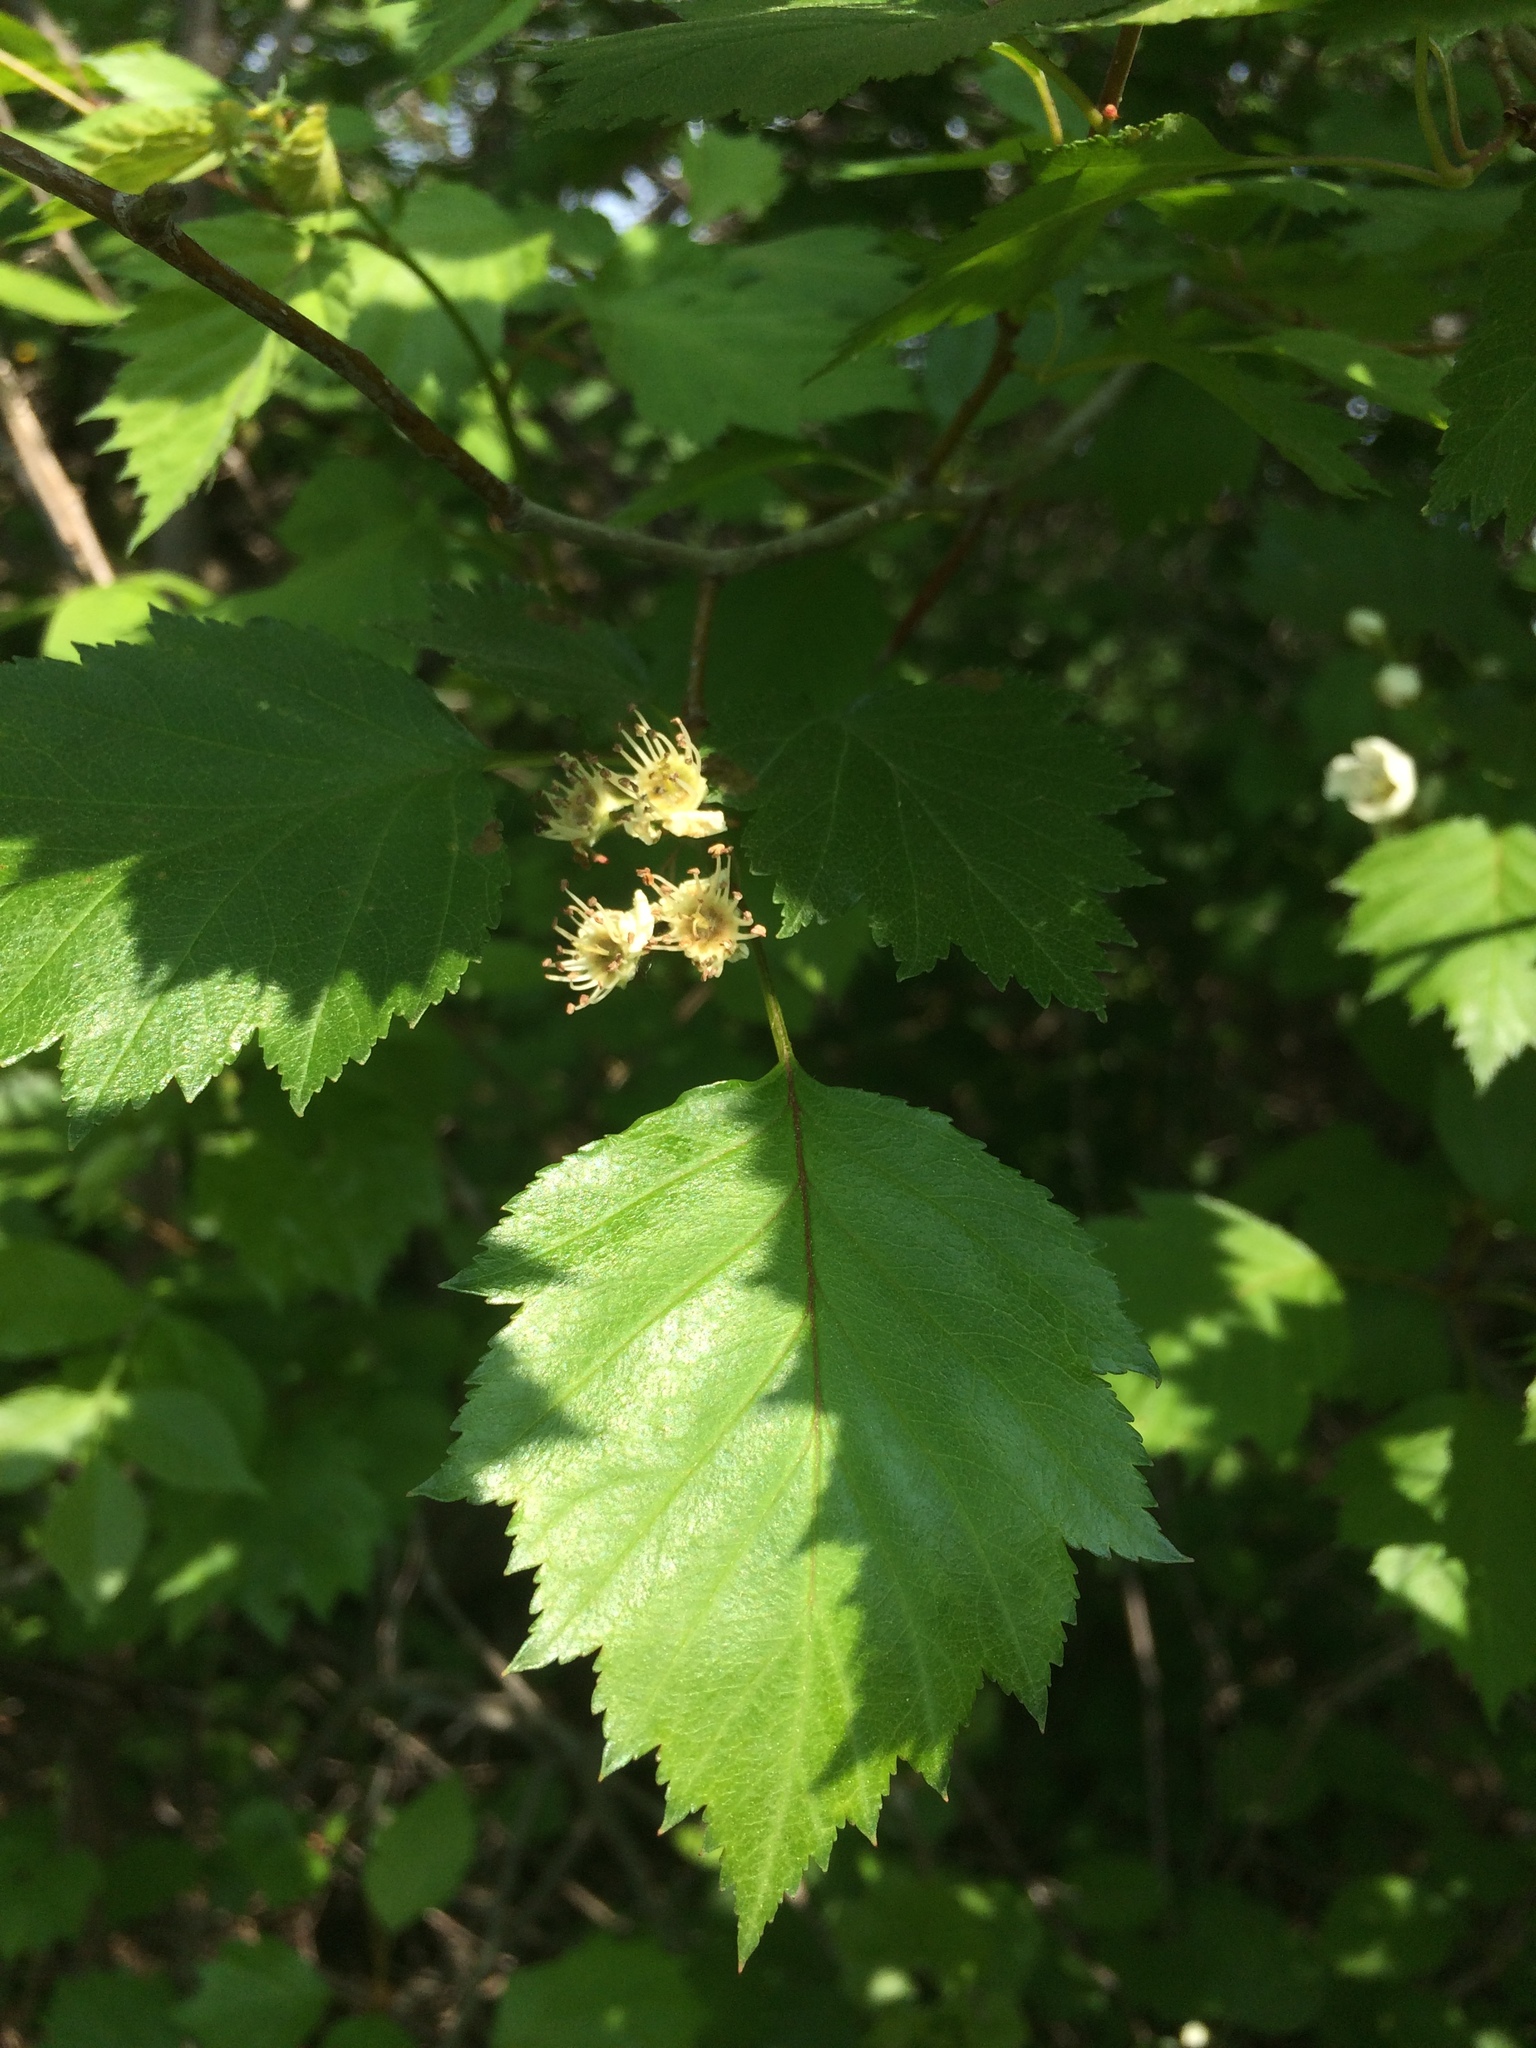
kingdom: Plantae
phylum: Tracheophyta
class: Magnoliopsida
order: Rosales
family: Rosaceae
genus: Crataegus
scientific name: Crataegus flabellata
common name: Bosc's hawthorn
